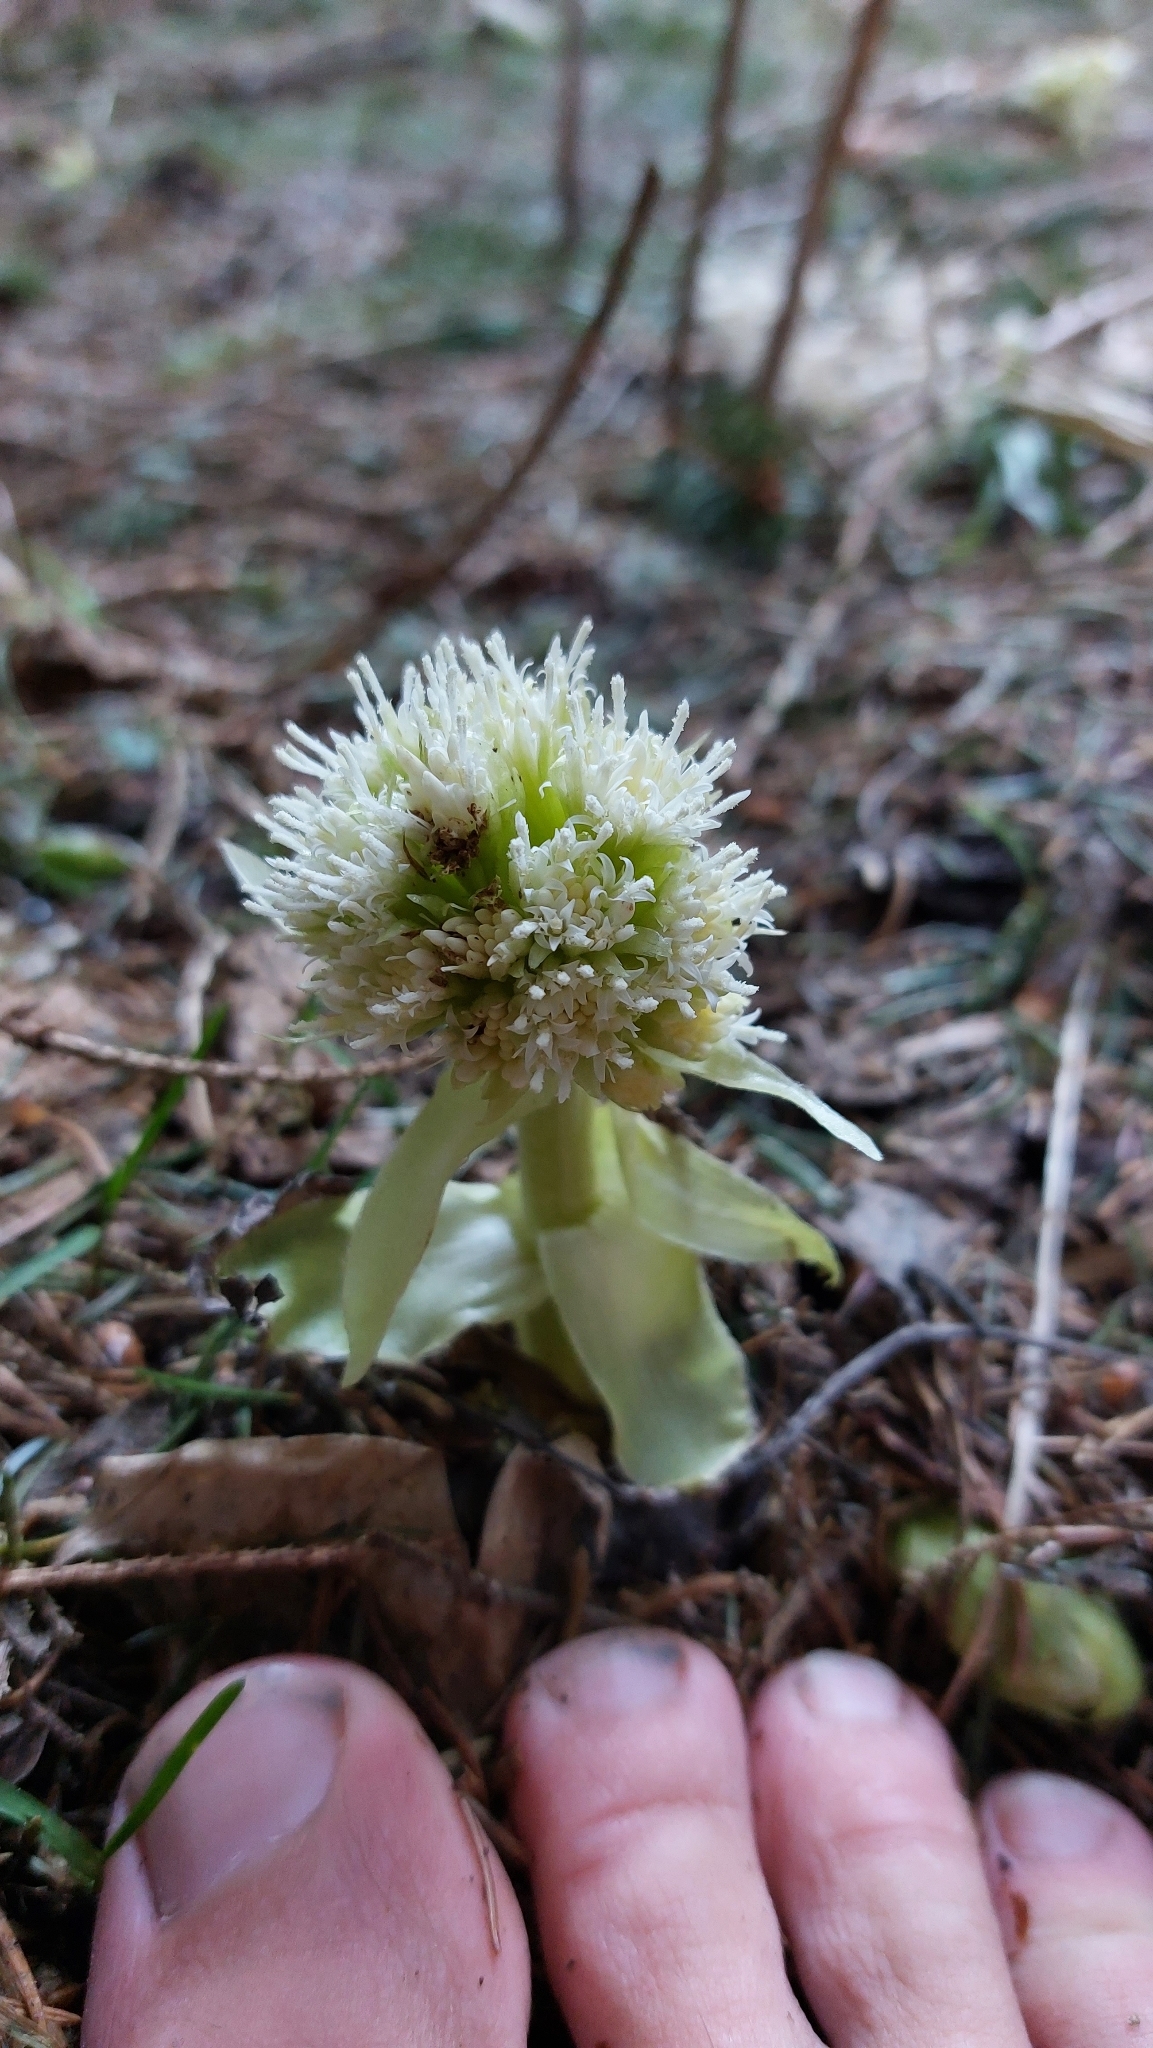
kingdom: Plantae
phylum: Tracheophyta
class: Magnoliopsida
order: Asterales
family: Asteraceae
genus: Petasites
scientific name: Petasites albus
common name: White butterbur
